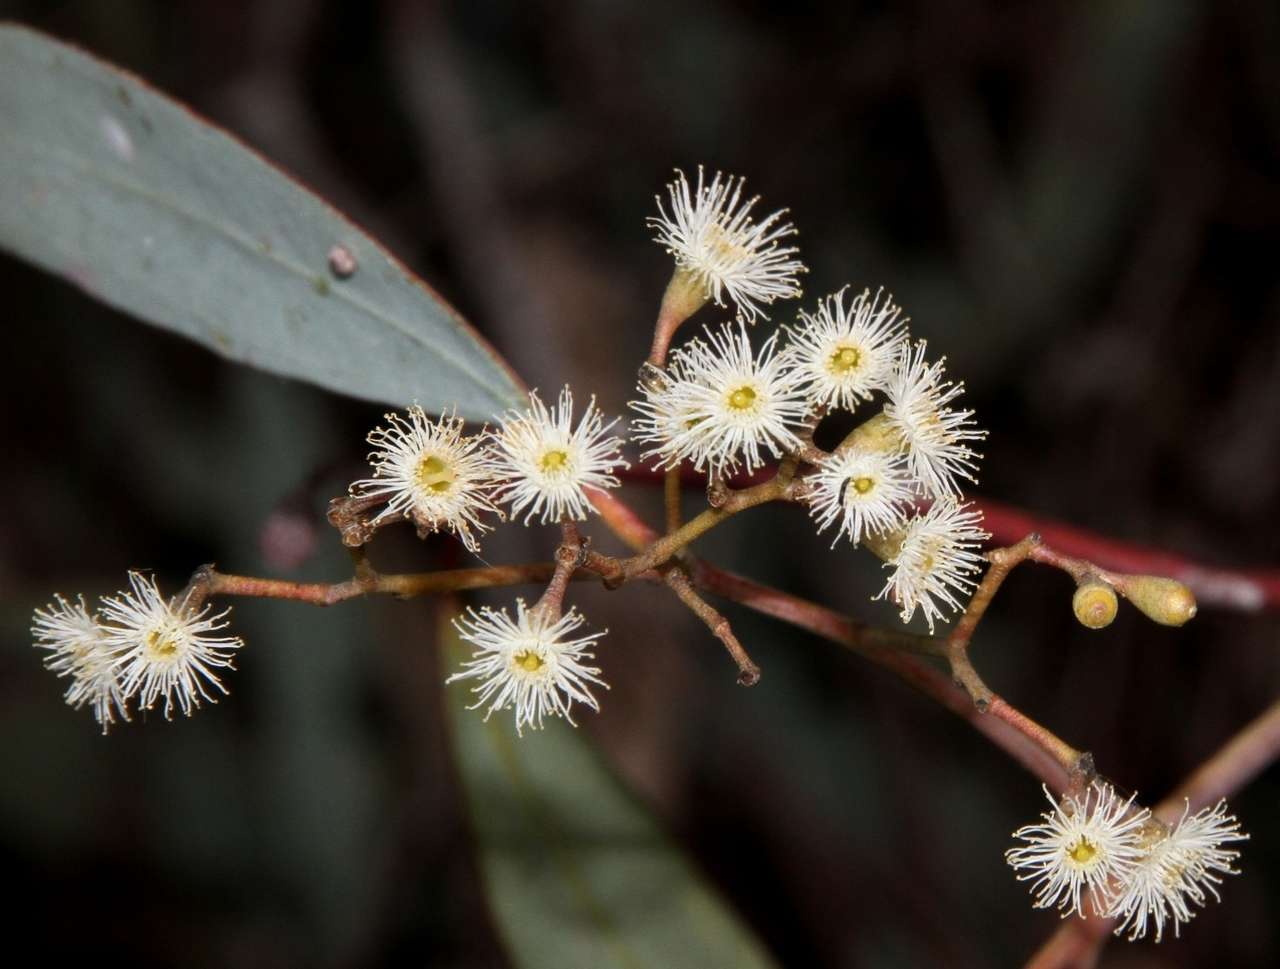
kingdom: Plantae
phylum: Tracheophyta
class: Magnoliopsida
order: Myrtales
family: Myrtaceae
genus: Eucalyptus
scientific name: Eucalyptus largiflorens
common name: Black-box
